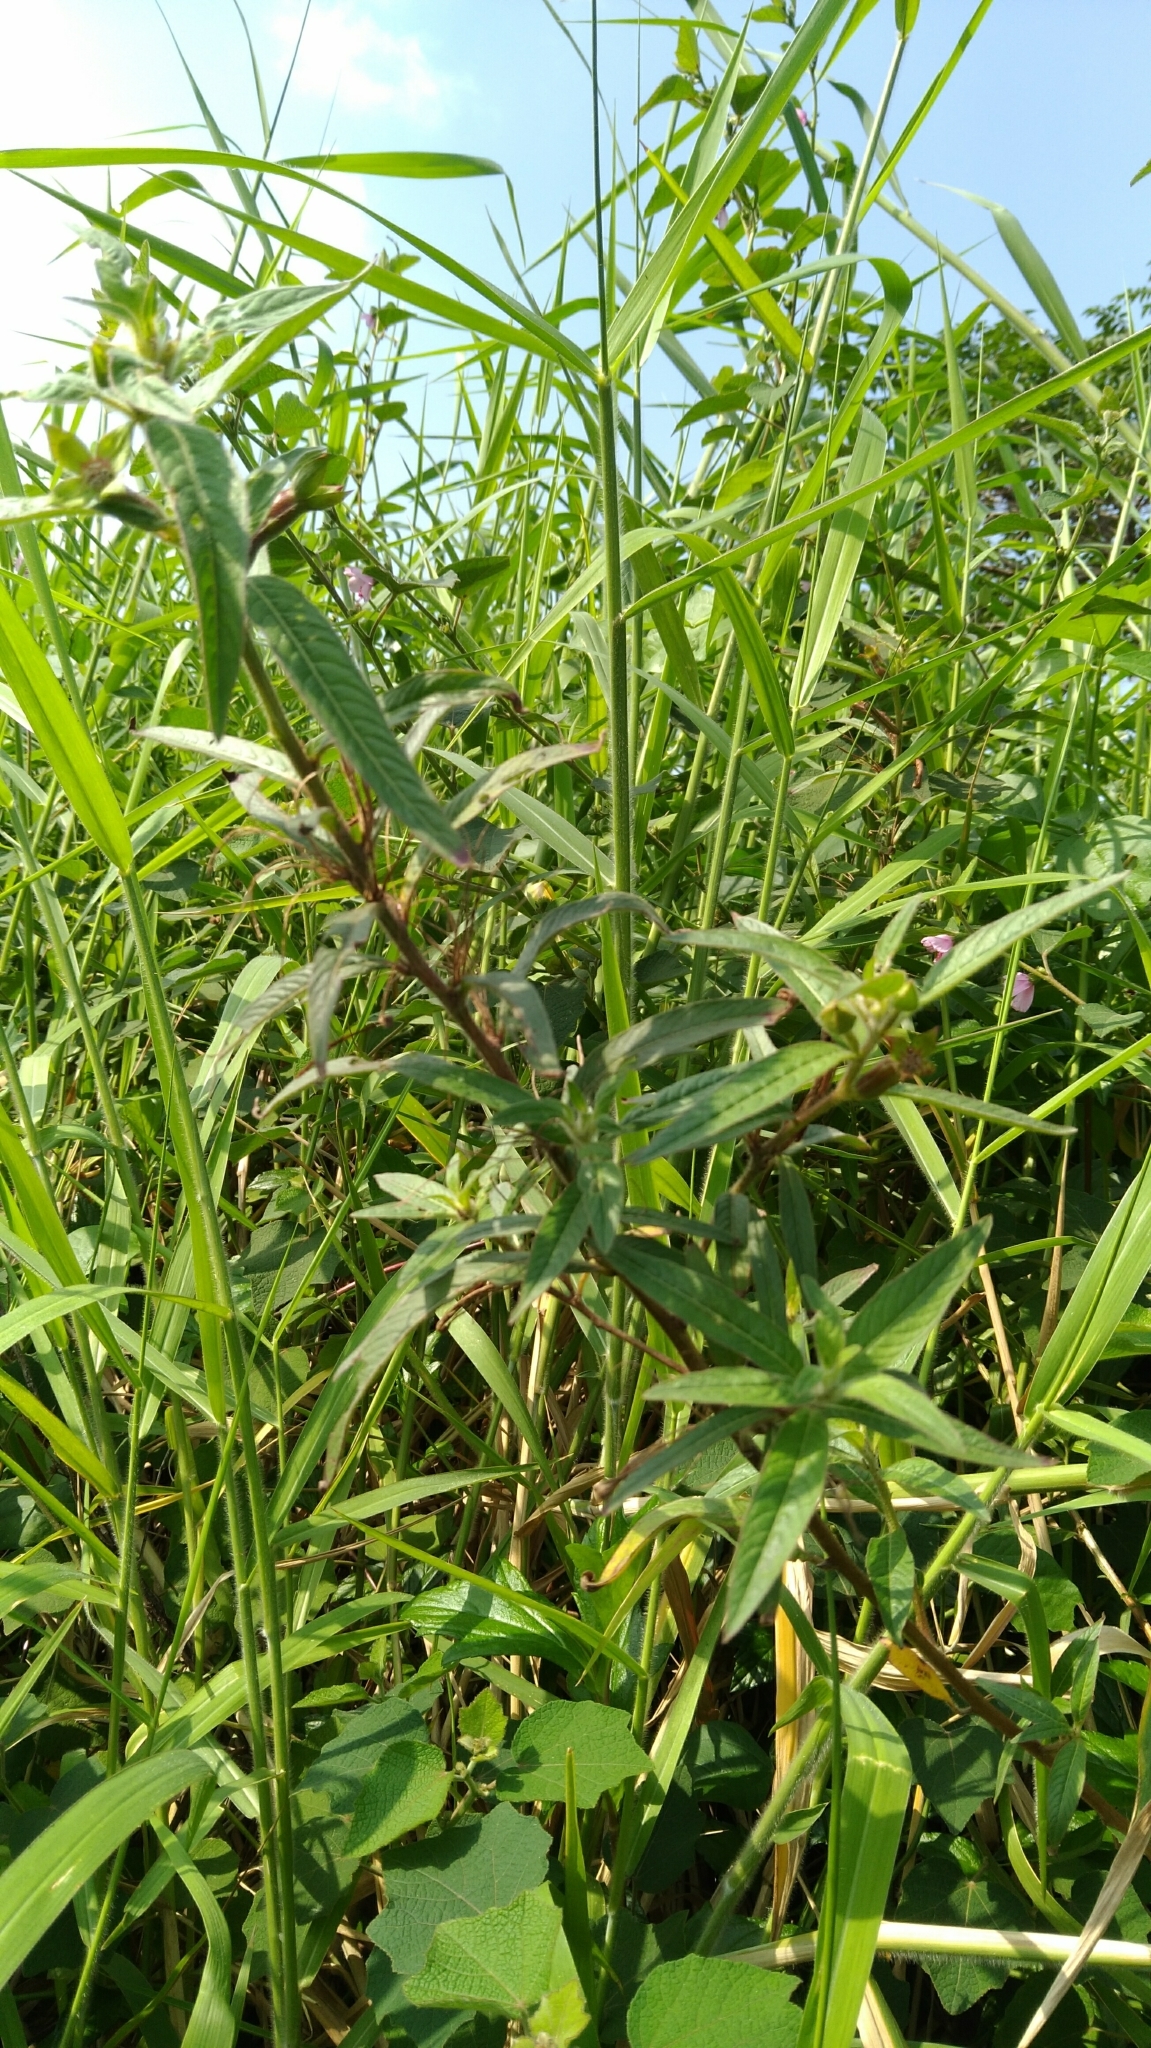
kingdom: Plantae
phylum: Tracheophyta
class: Magnoliopsida
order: Myrtales
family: Onagraceae
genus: Ludwigia
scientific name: Ludwigia octovalvis
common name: Water-primrose
